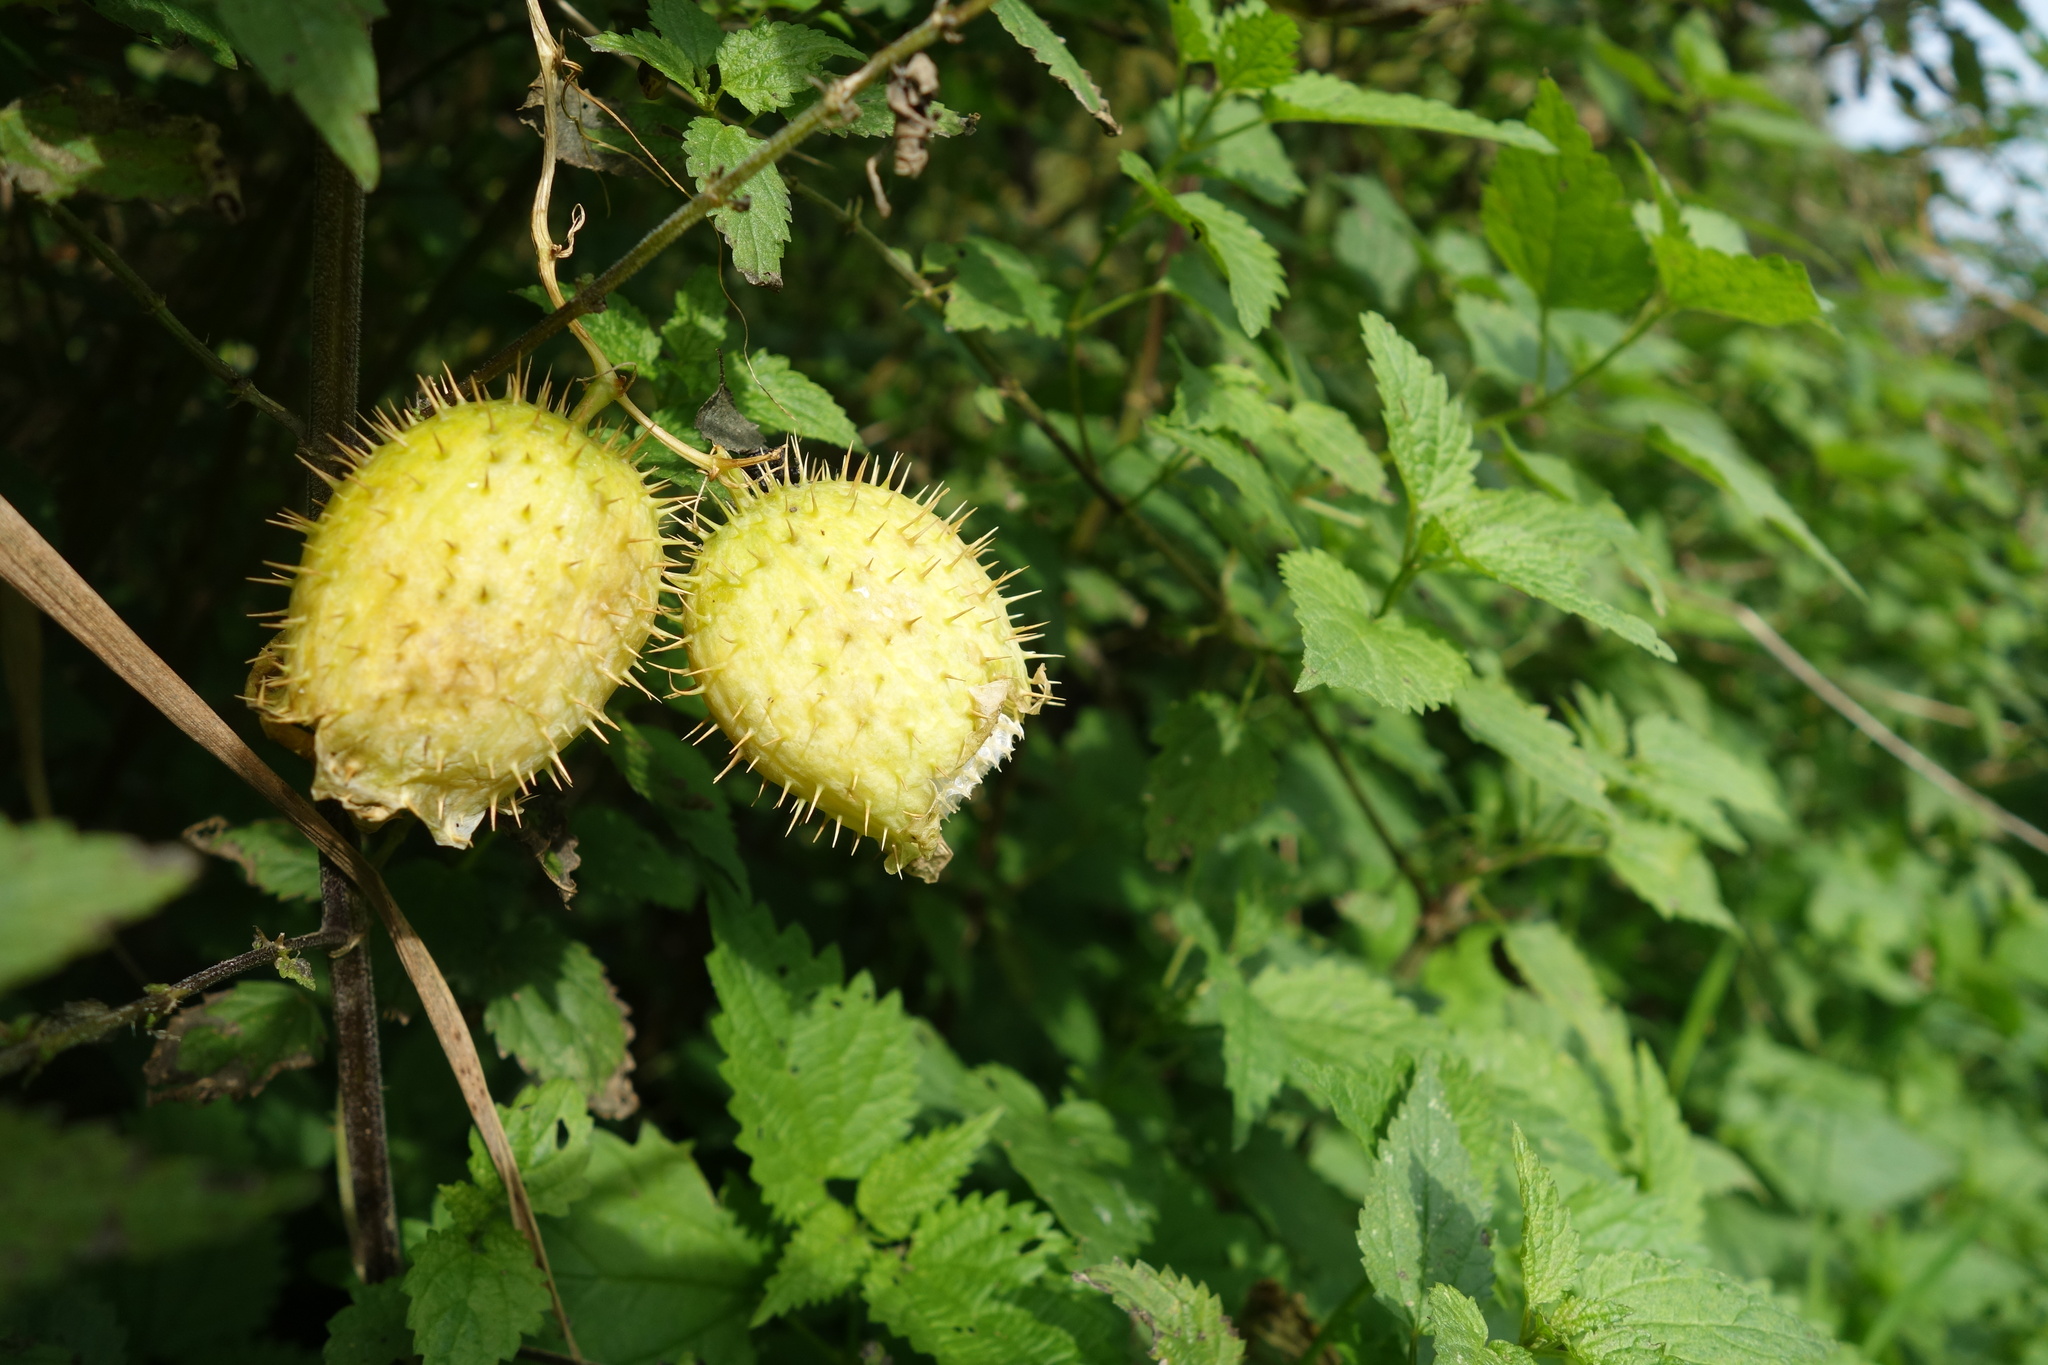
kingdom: Plantae
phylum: Tracheophyta
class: Magnoliopsida
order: Cucurbitales
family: Cucurbitaceae
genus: Echinocystis
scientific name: Echinocystis lobata
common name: Wild cucumber
